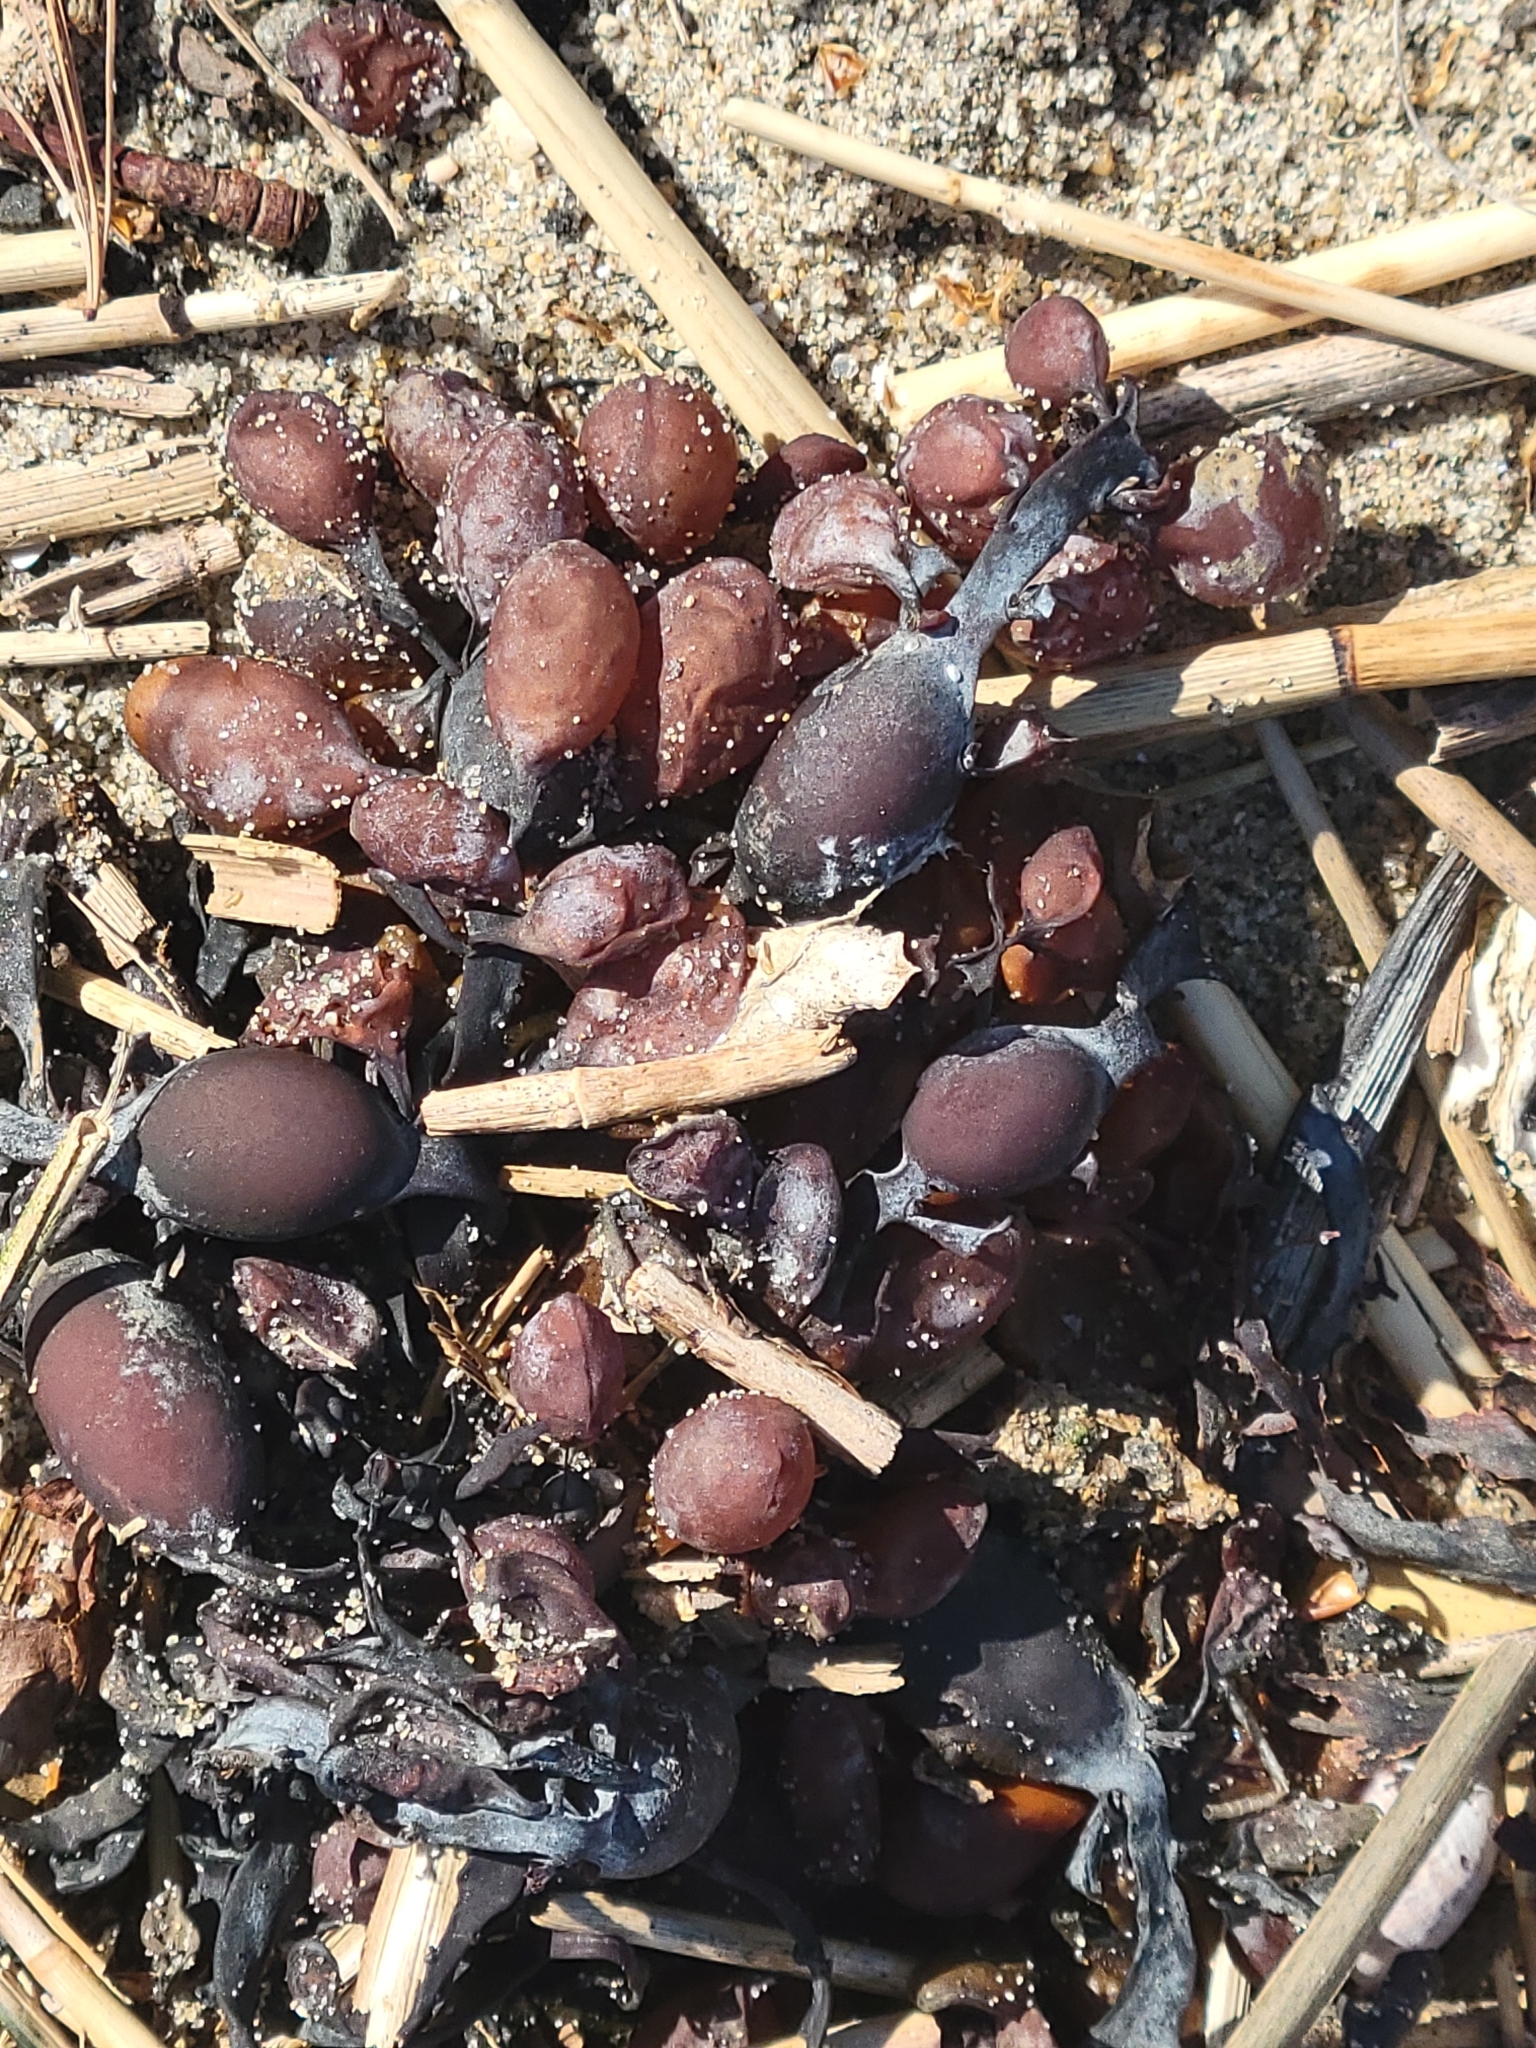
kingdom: Chromista
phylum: Ochrophyta
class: Phaeophyceae
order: Fucales
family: Fucaceae
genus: Ascophyllum
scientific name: Ascophyllum nodosum
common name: Knotted wrack
